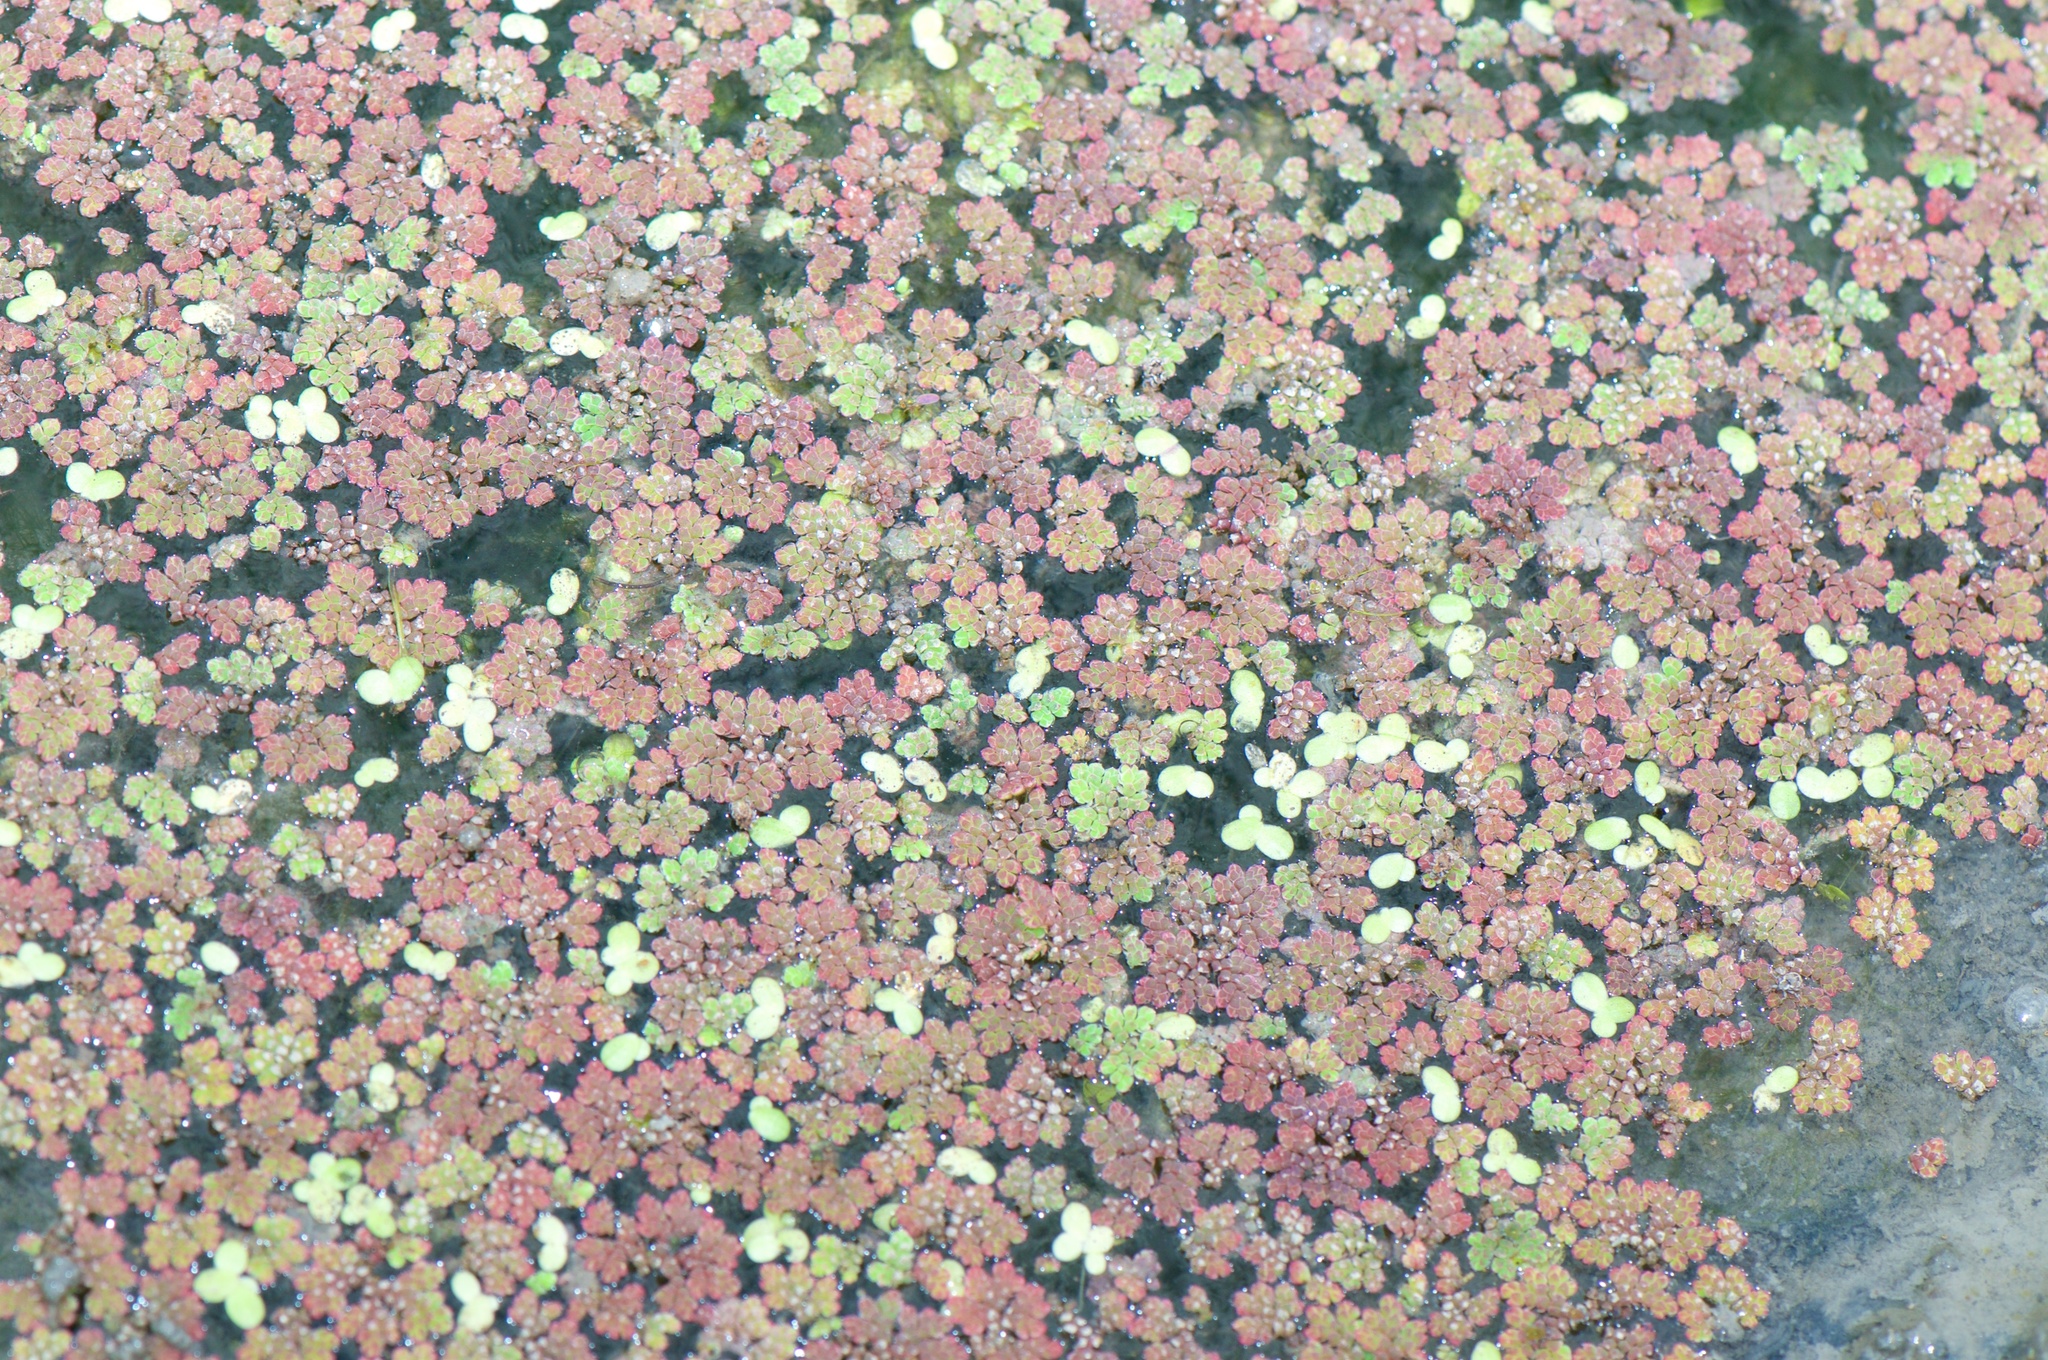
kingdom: Plantae
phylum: Tracheophyta
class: Polypodiopsida
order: Salviniales
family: Salviniaceae
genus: Azolla
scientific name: Azolla filiculoides
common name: Water fern
